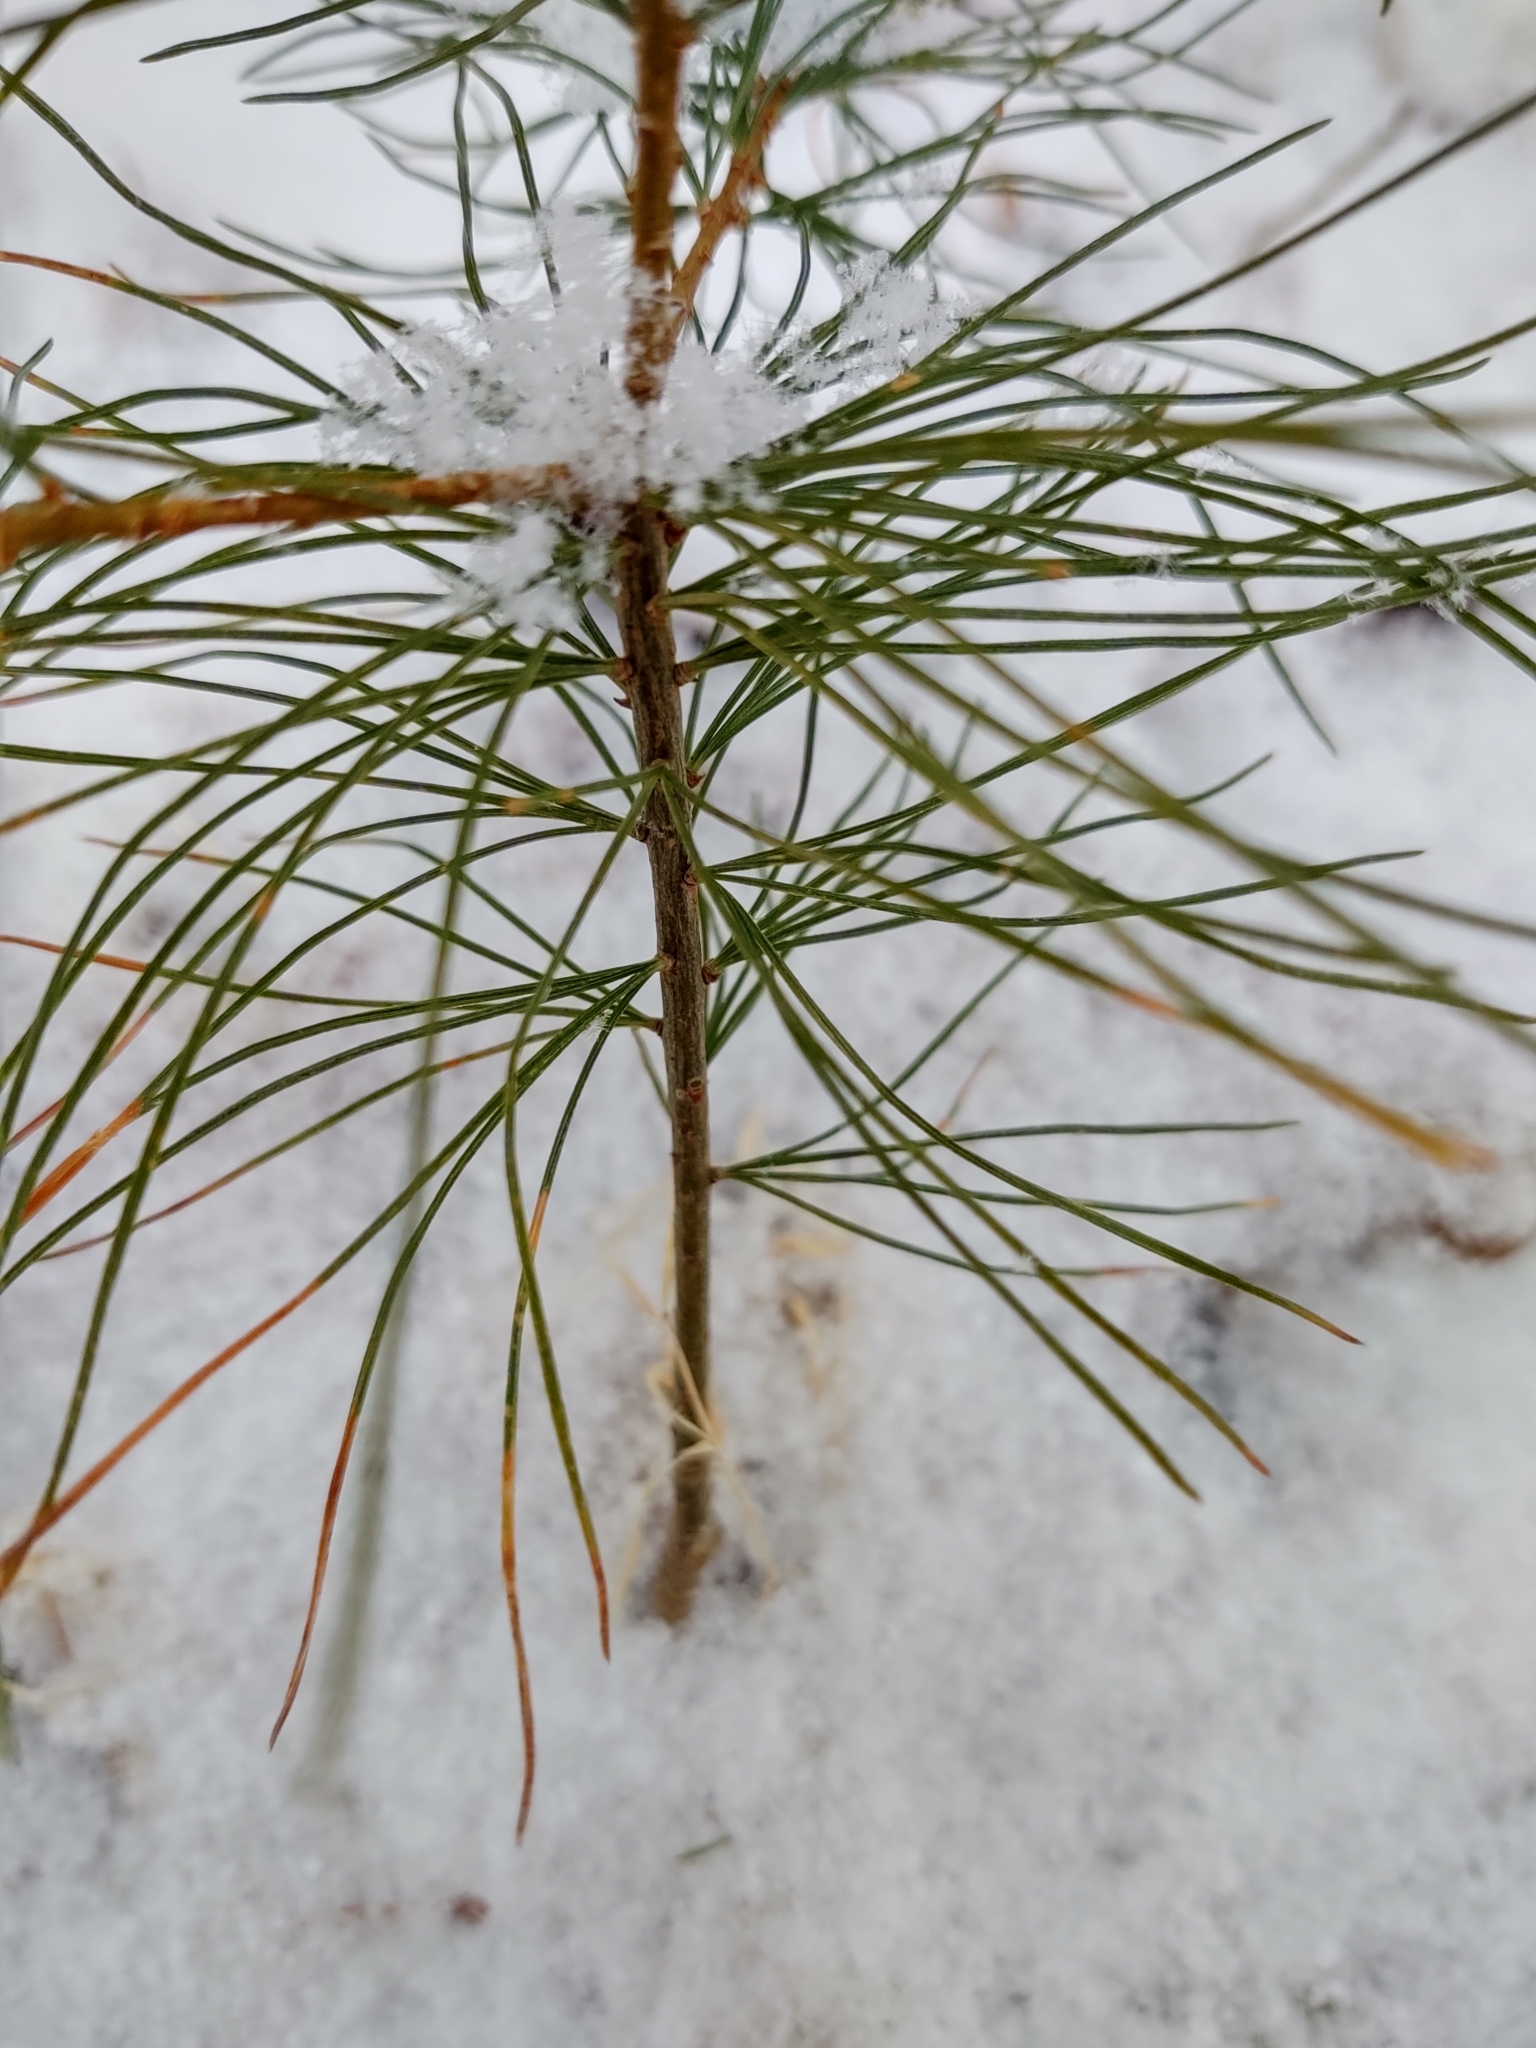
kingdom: Plantae
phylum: Tracheophyta
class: Pinopsida
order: Pinales
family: Pinaceae
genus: Pinus
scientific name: Pinus strobus
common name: Weymouth pine
